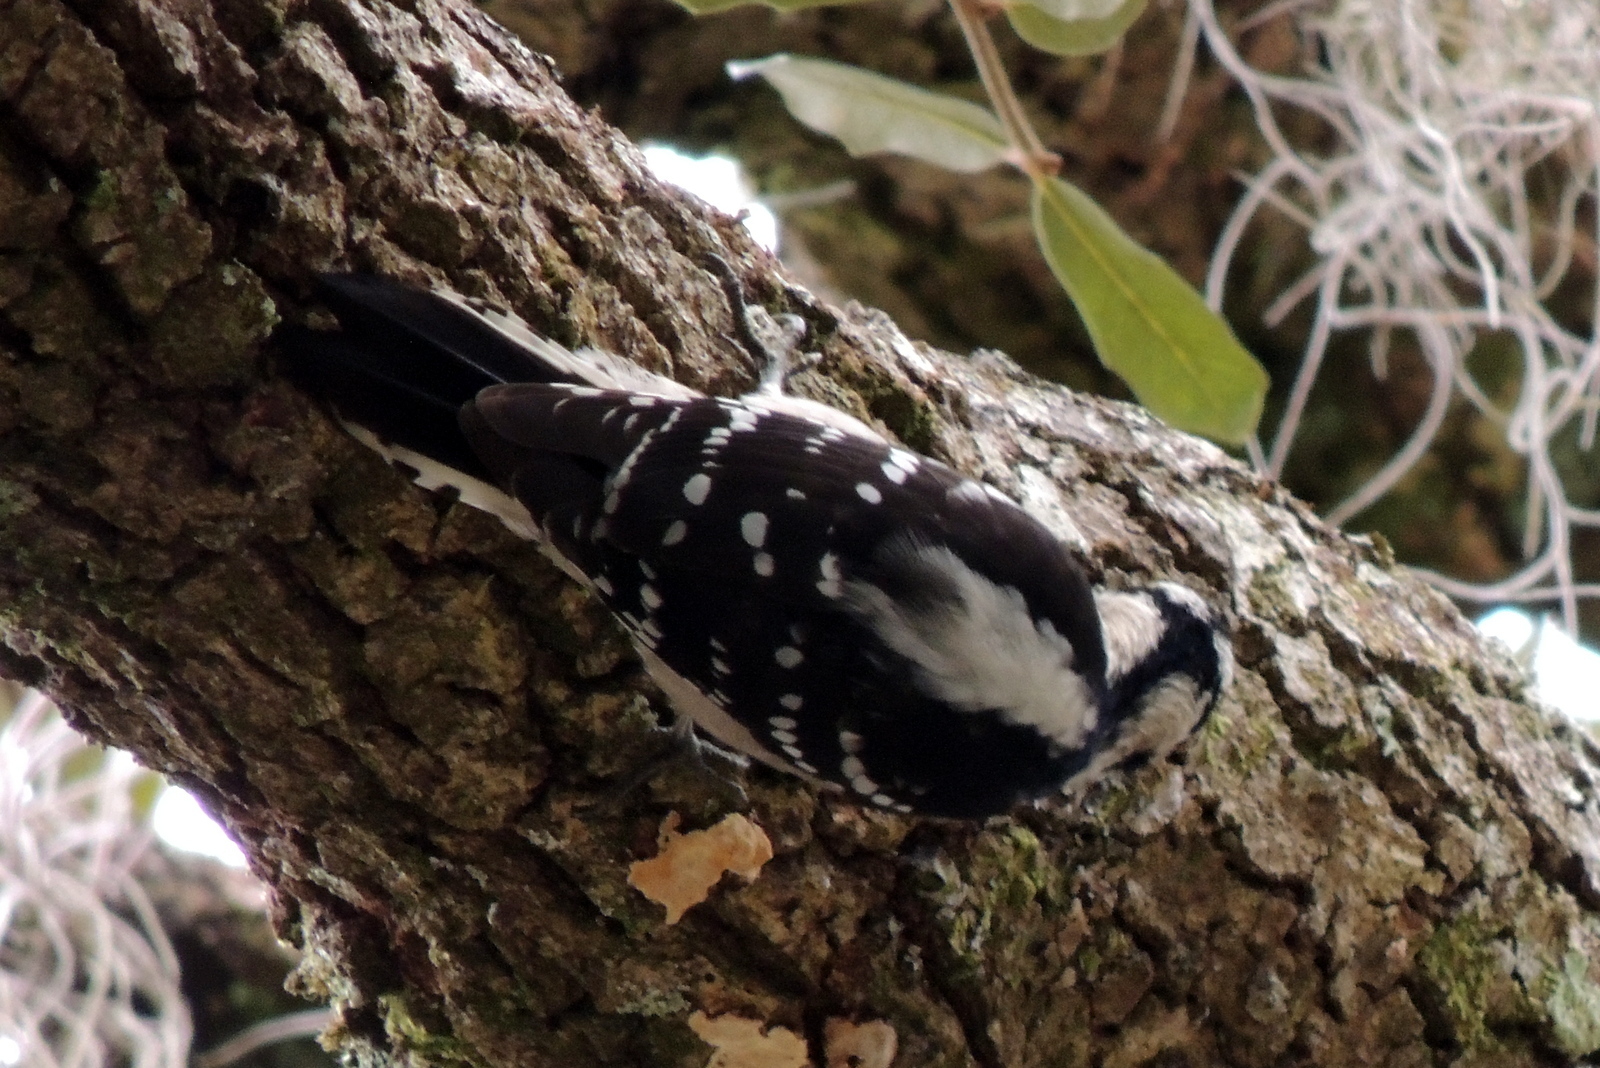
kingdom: Animalia
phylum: Chordata
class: Aves
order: Piciformes
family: Picidae
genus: Dryobates
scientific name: Dryobates pubescens
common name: Downy woodpecker
